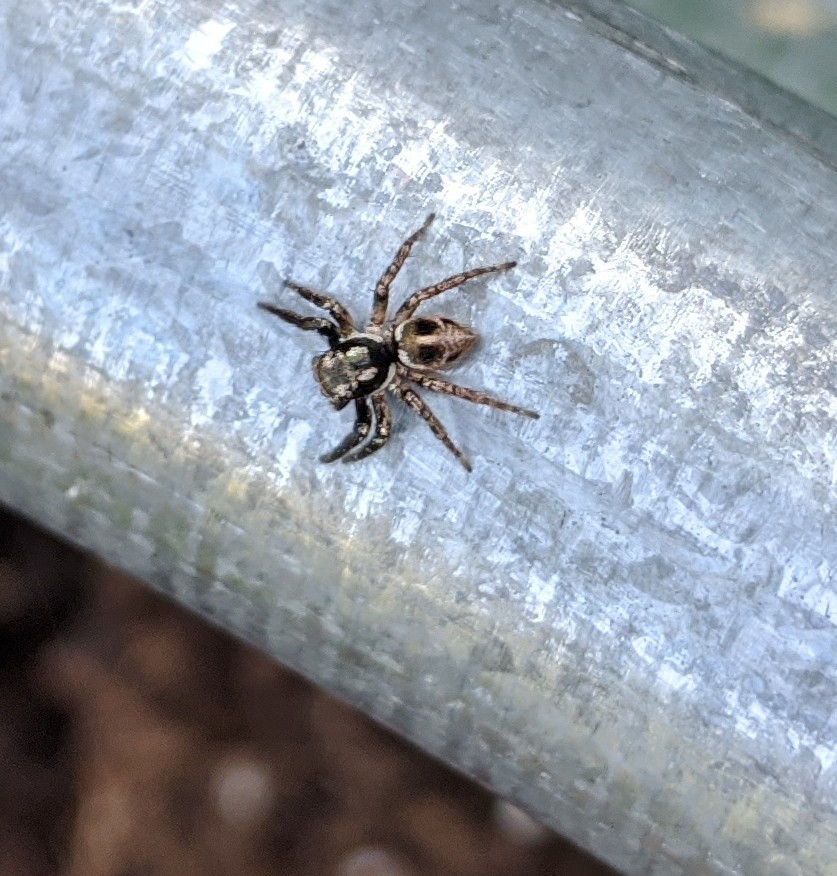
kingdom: Animalia
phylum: Arthropoda
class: Arachnida
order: Araneae
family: Salticidae
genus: Anasaitis
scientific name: Anasaitis canosa
